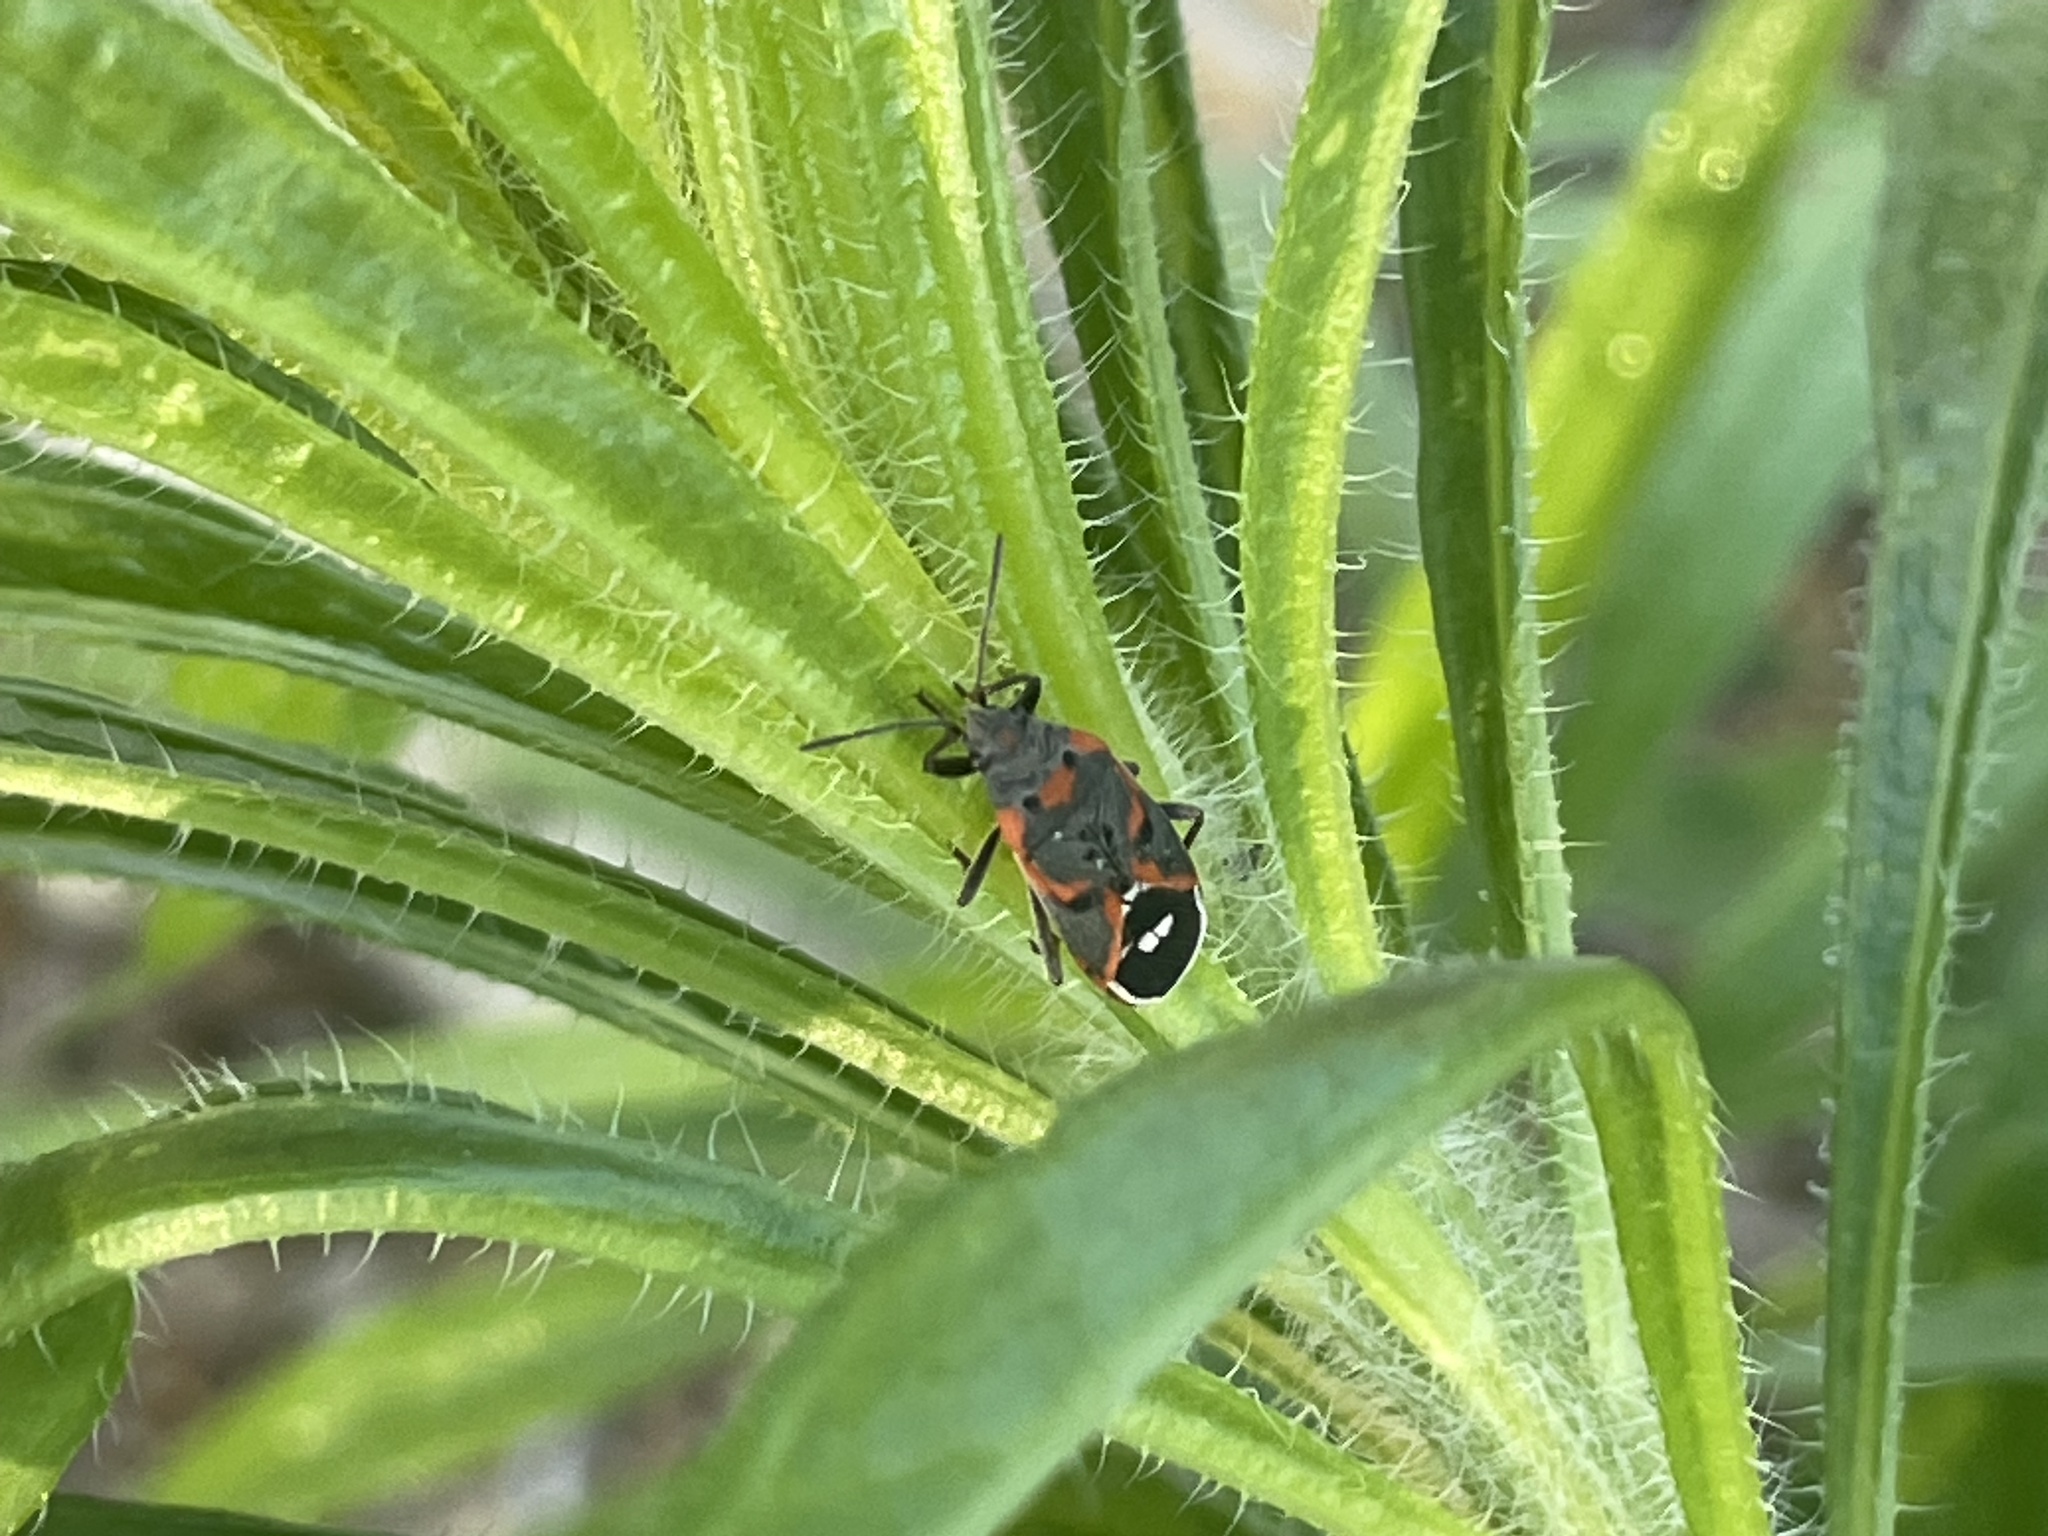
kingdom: Animalia
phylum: Arthropoda
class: Insecta
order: Hemiptera
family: Lygaeidae
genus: Lygaeus
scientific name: Lygaeus kalmii
